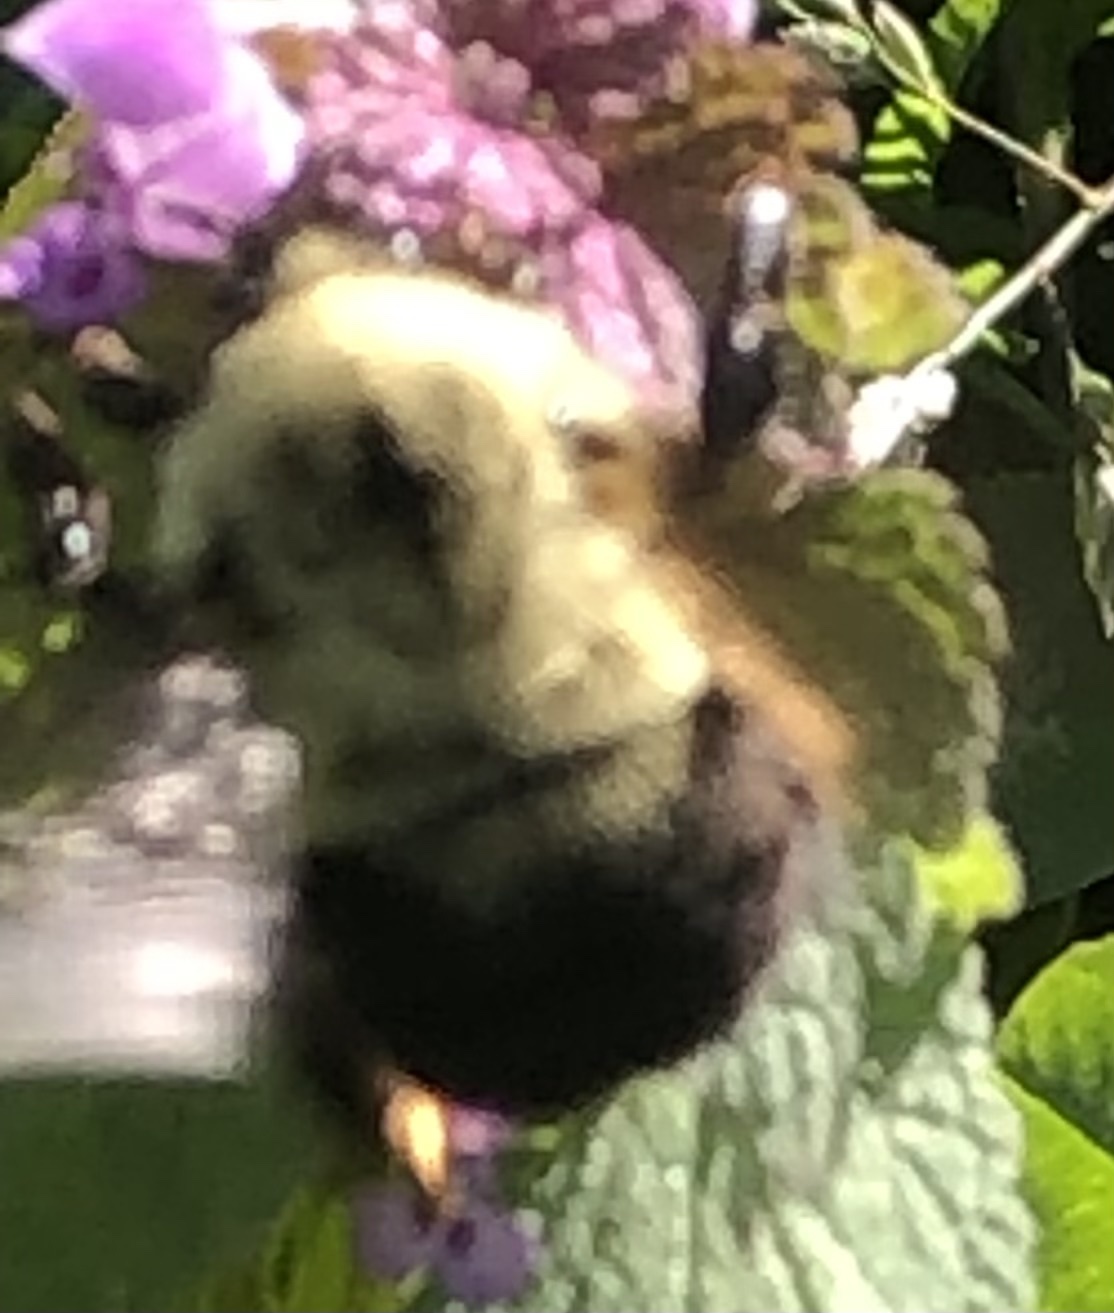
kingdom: Animalia
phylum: Arthropoda
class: Insecta
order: Hymenoptera
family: Apidae
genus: Bombus
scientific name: Bombus bimaculatus
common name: Two-spotted bumble bee
